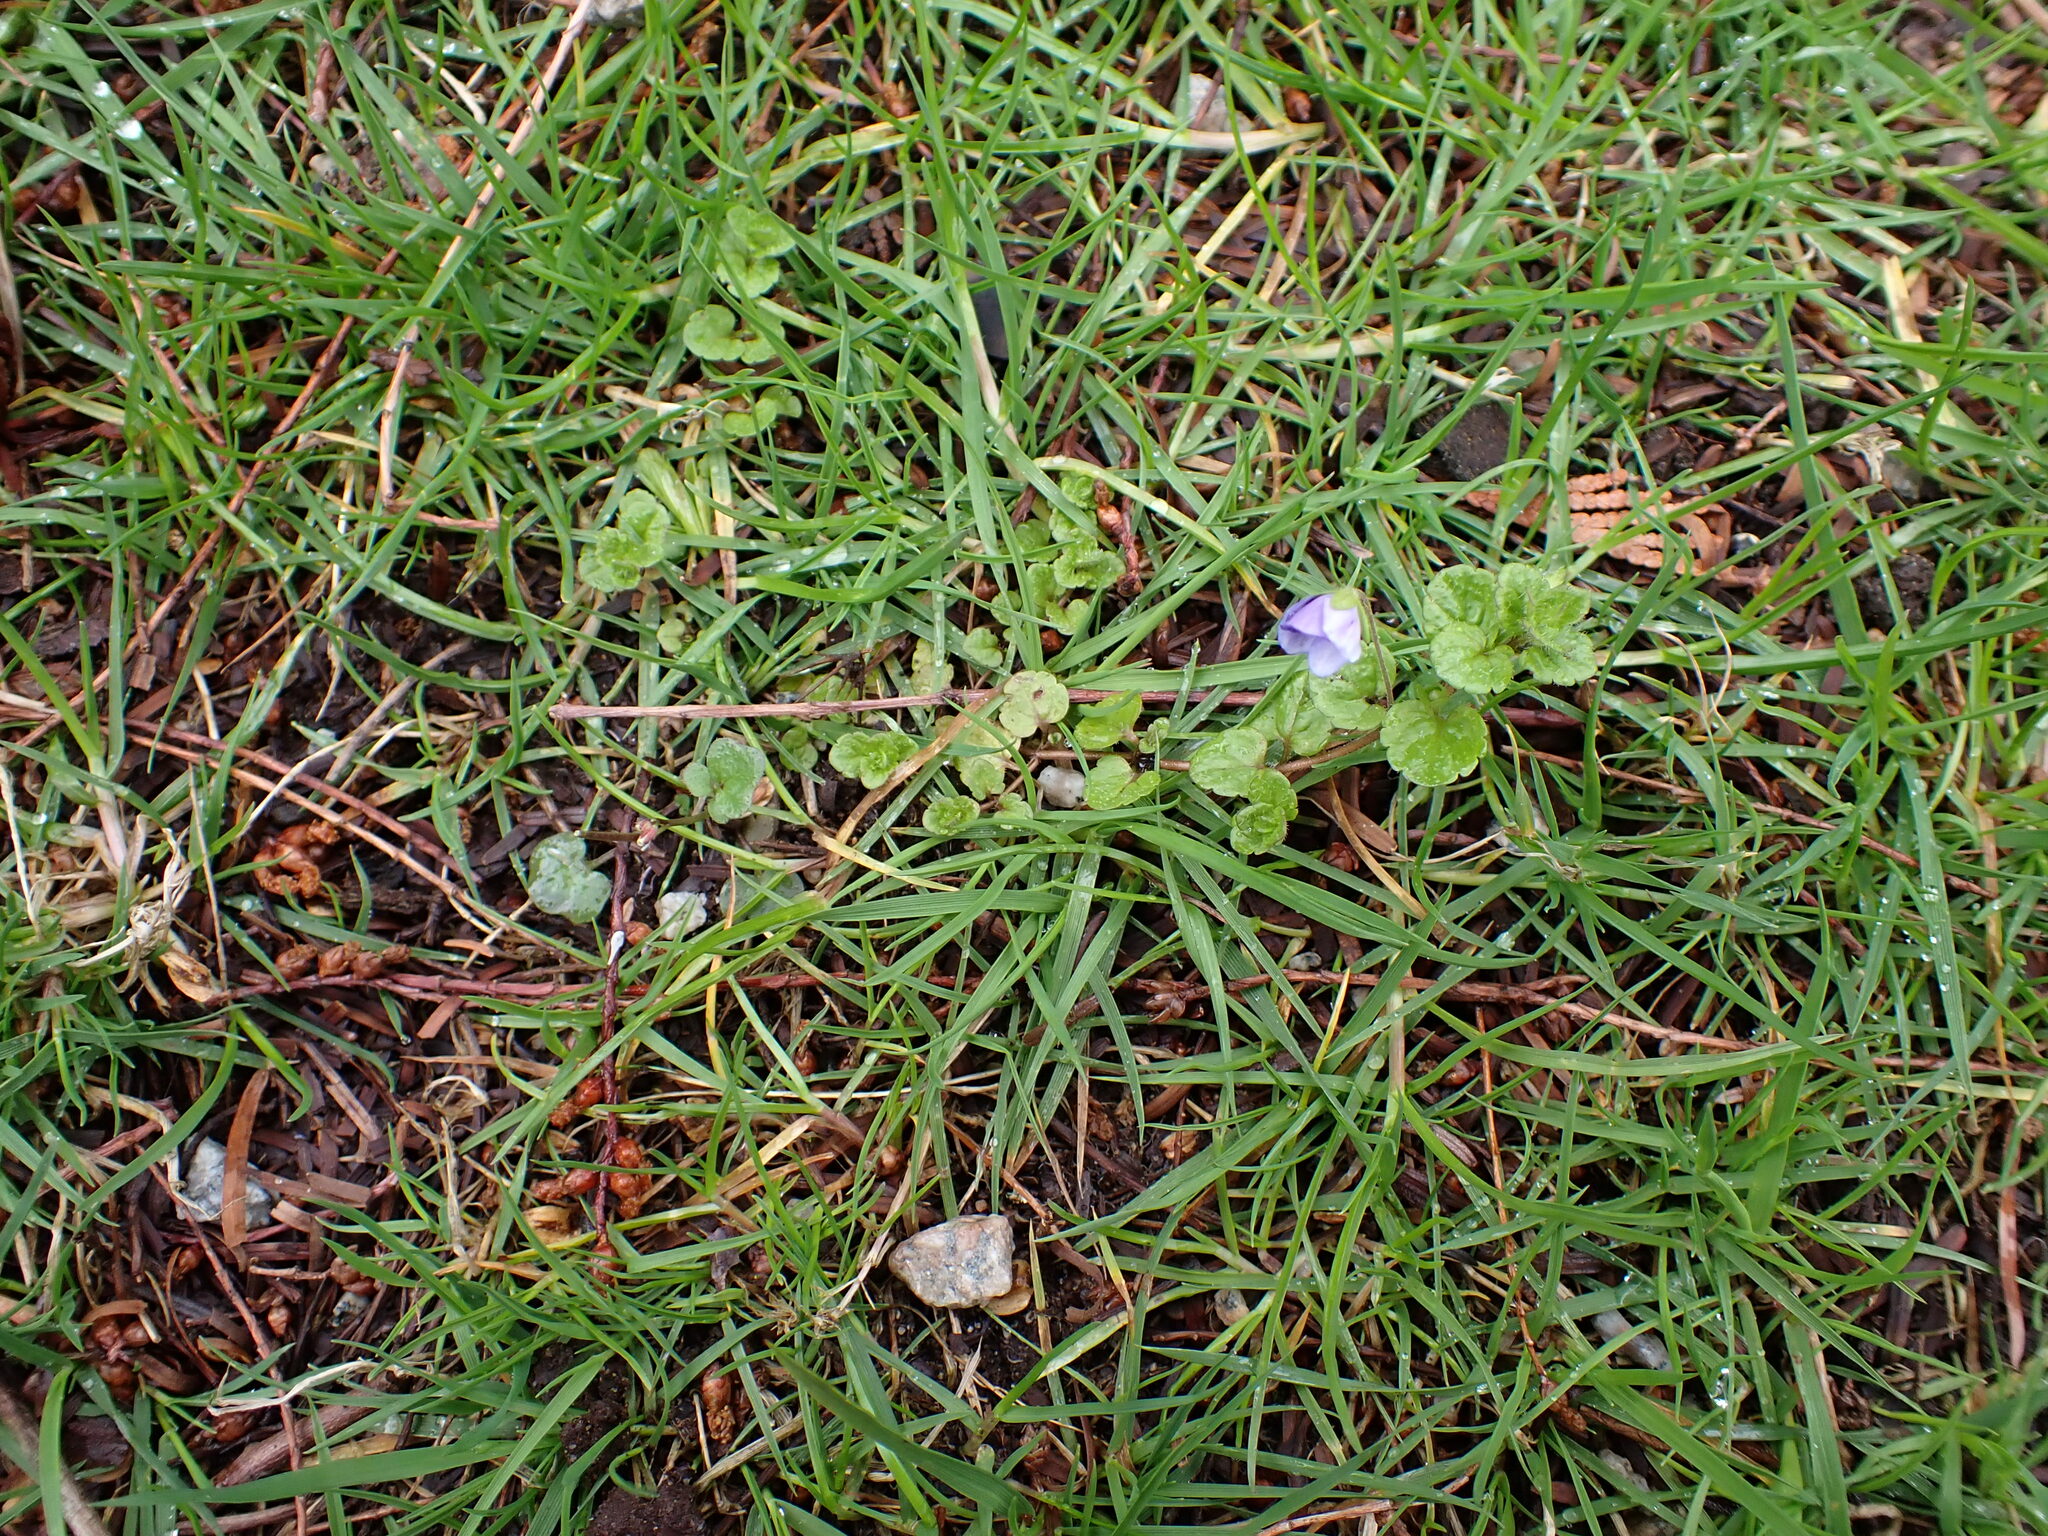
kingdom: Plantae
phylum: Tracheophyta
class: Magnoliopsida
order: Lamiales
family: Plantaginaceae
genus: Veronica
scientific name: Veronica filiformis
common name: Slender speedwell
